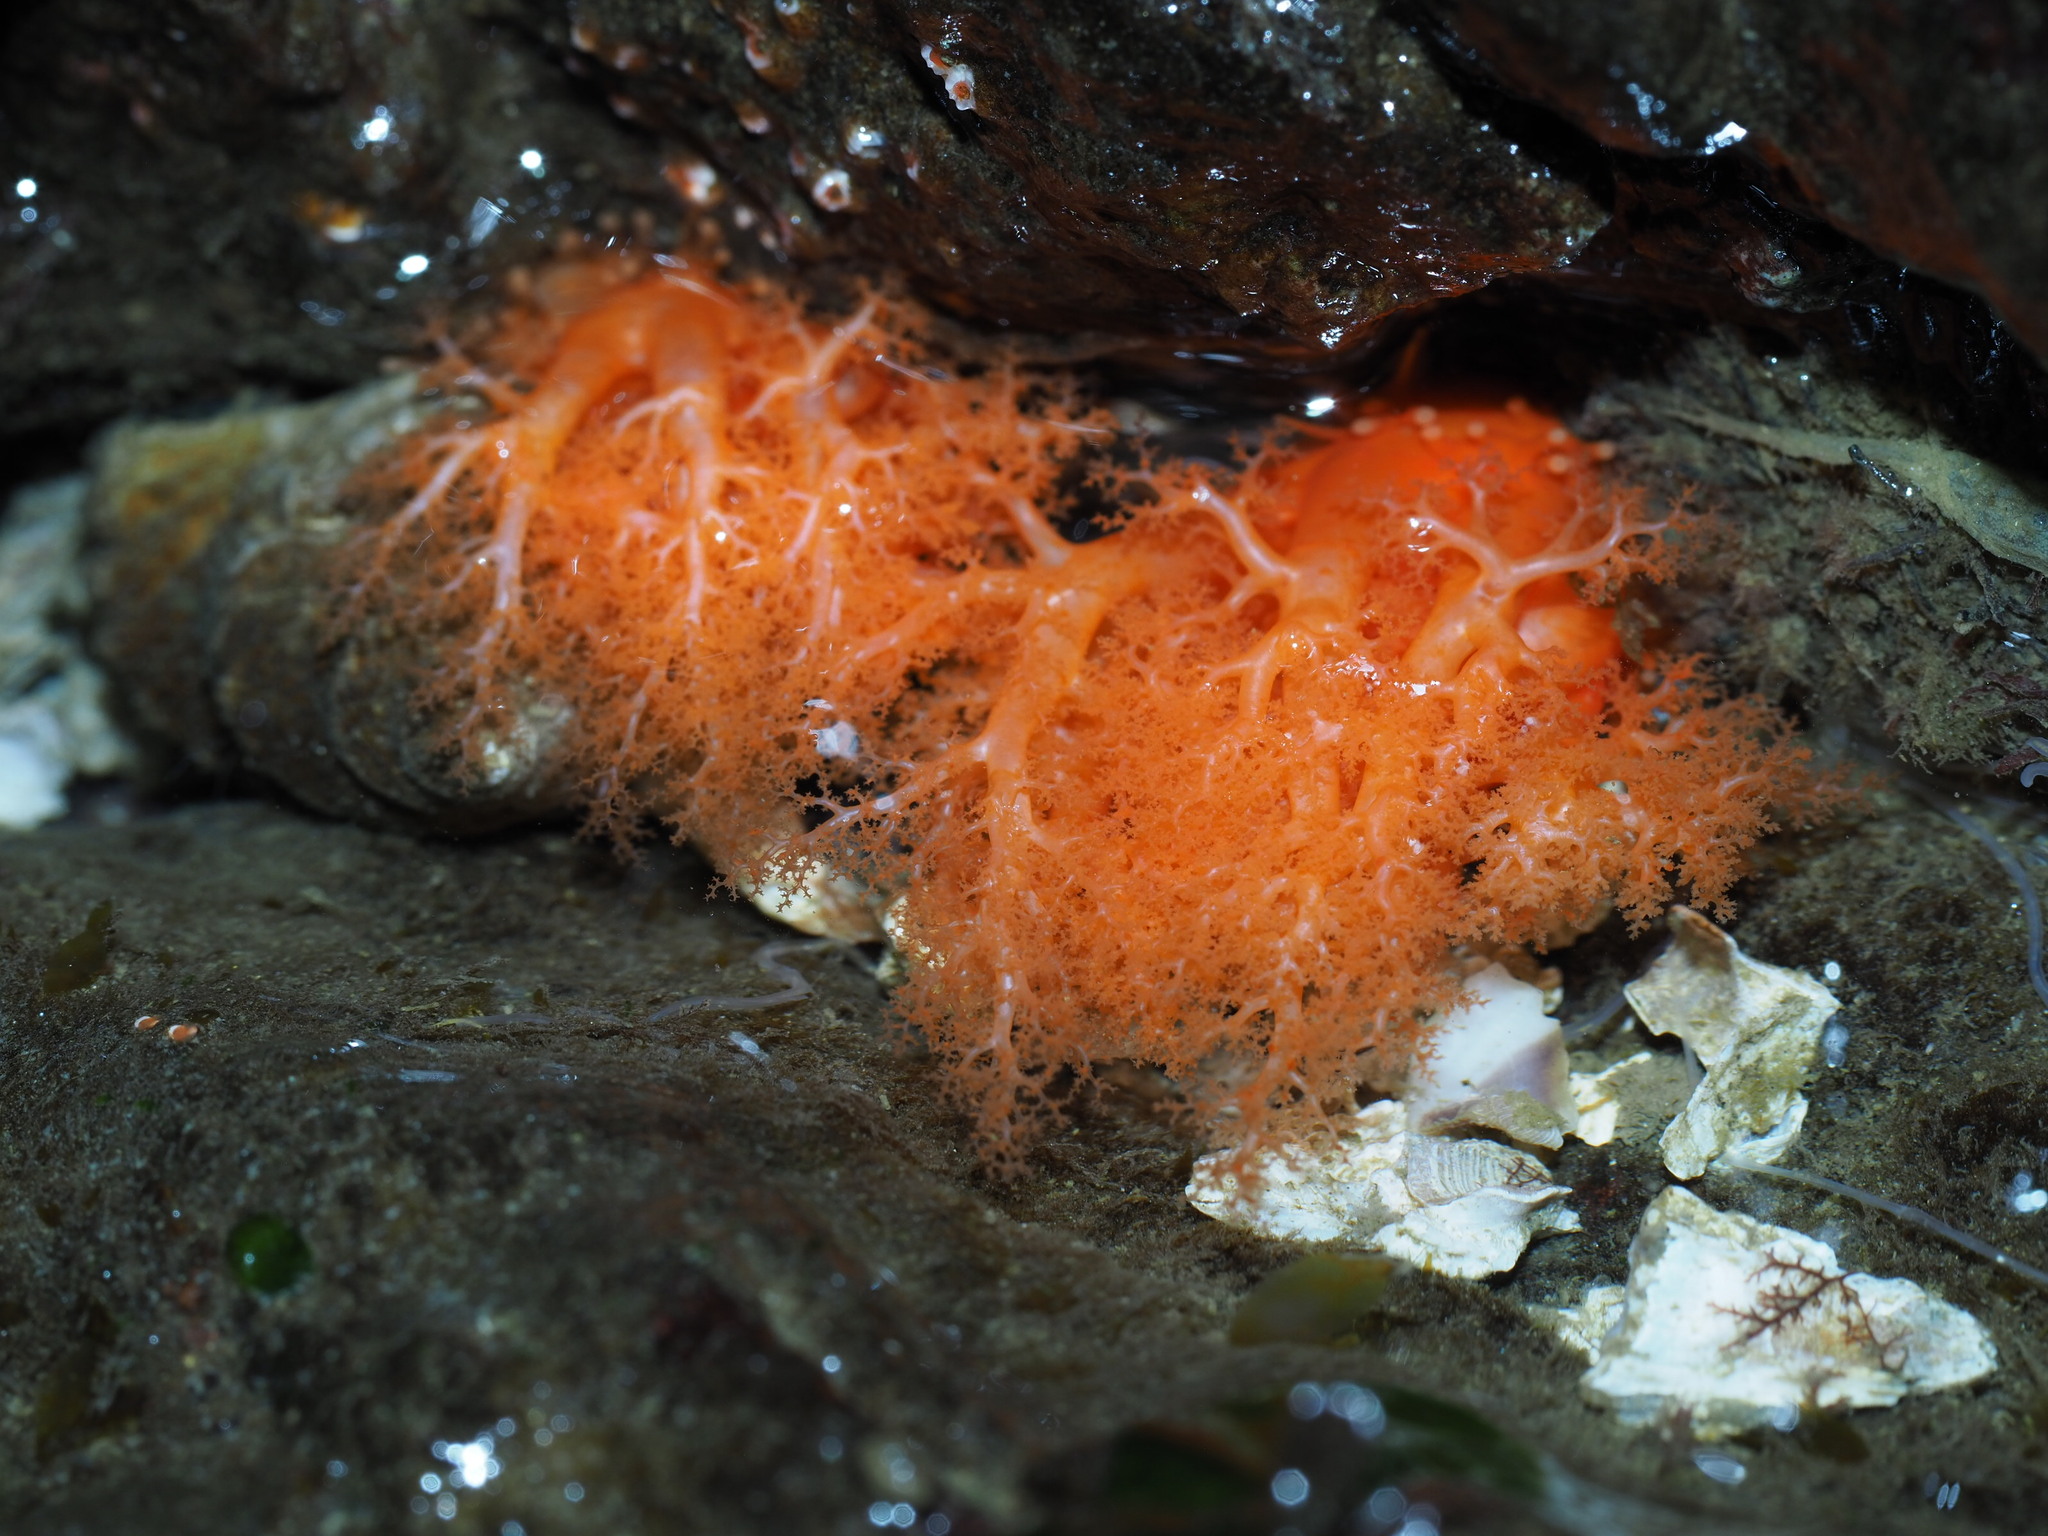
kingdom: Animalia
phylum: Echinodermata
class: Holothuroidea
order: Dendrochirotida
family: Cucumariidae
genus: Cucumaria
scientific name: Cucumaria miniata
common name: Orange sea cucumber
